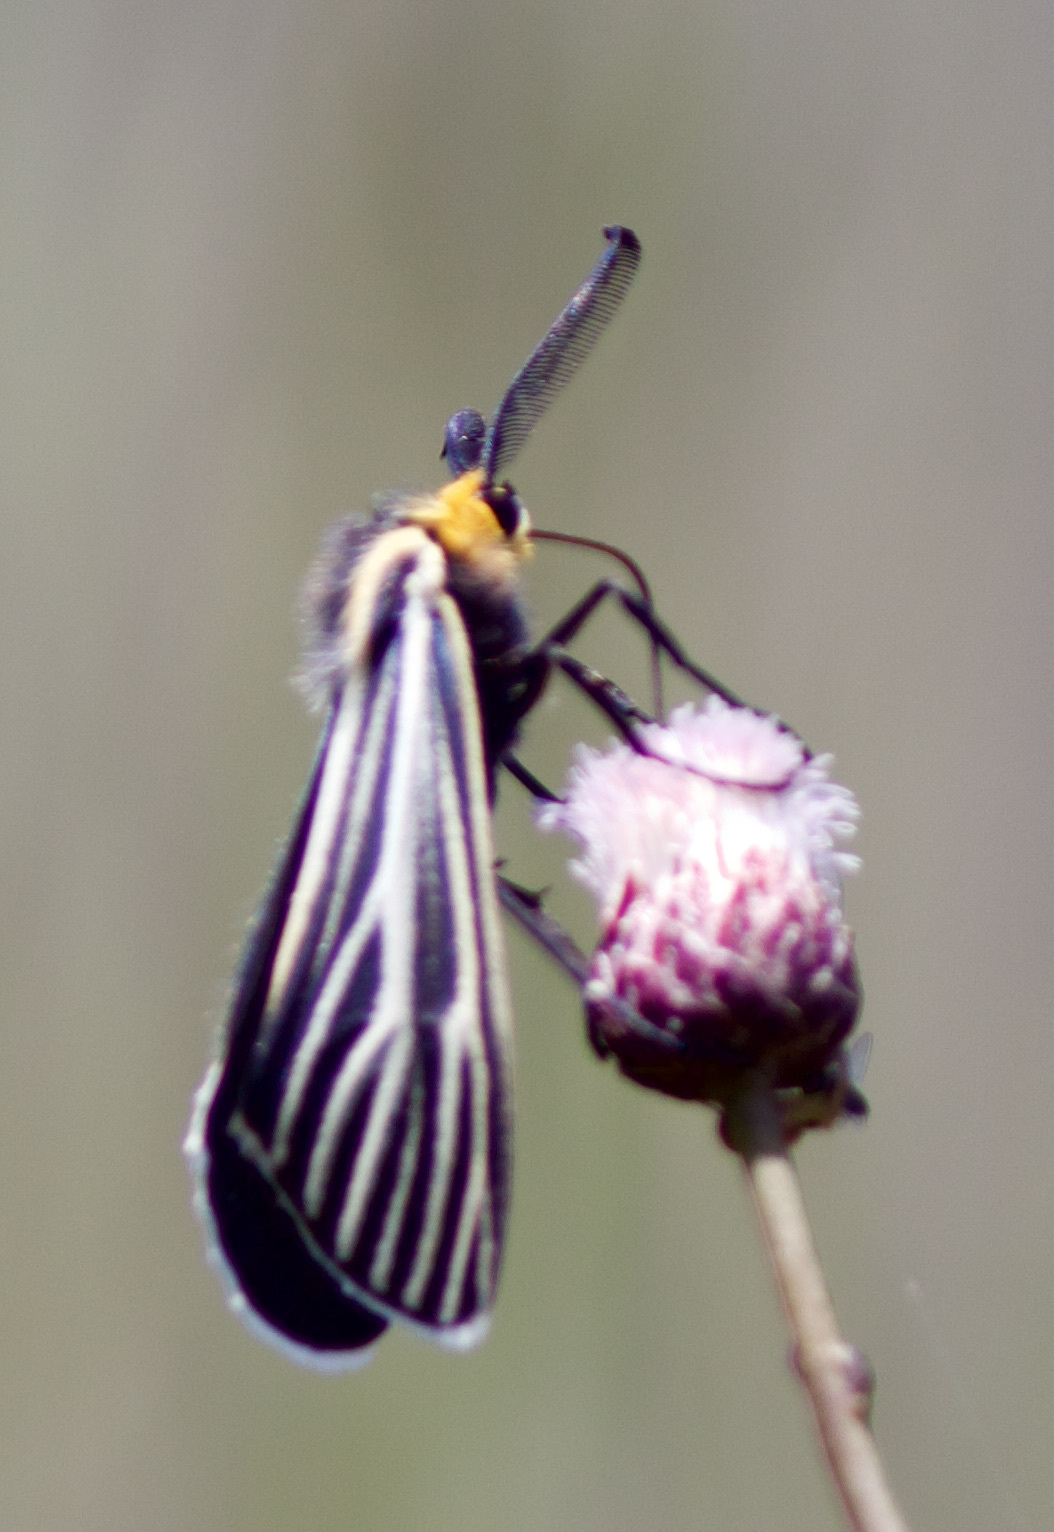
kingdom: Animalia
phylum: Arthropoda
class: Insecta
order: Lepidoptera
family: Erebidae
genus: Ctenucha
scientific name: Ctenucha vittigerum
